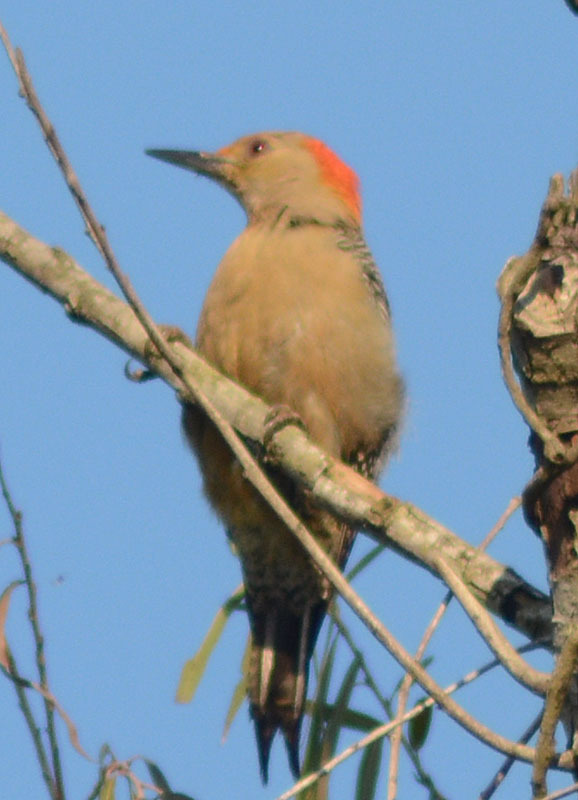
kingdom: Animalia
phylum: Chordata
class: Aves
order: Piciformes
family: Picidae
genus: Melanerpes
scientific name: Melanerpes aurifrons
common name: Golden-fronted woodpecker
